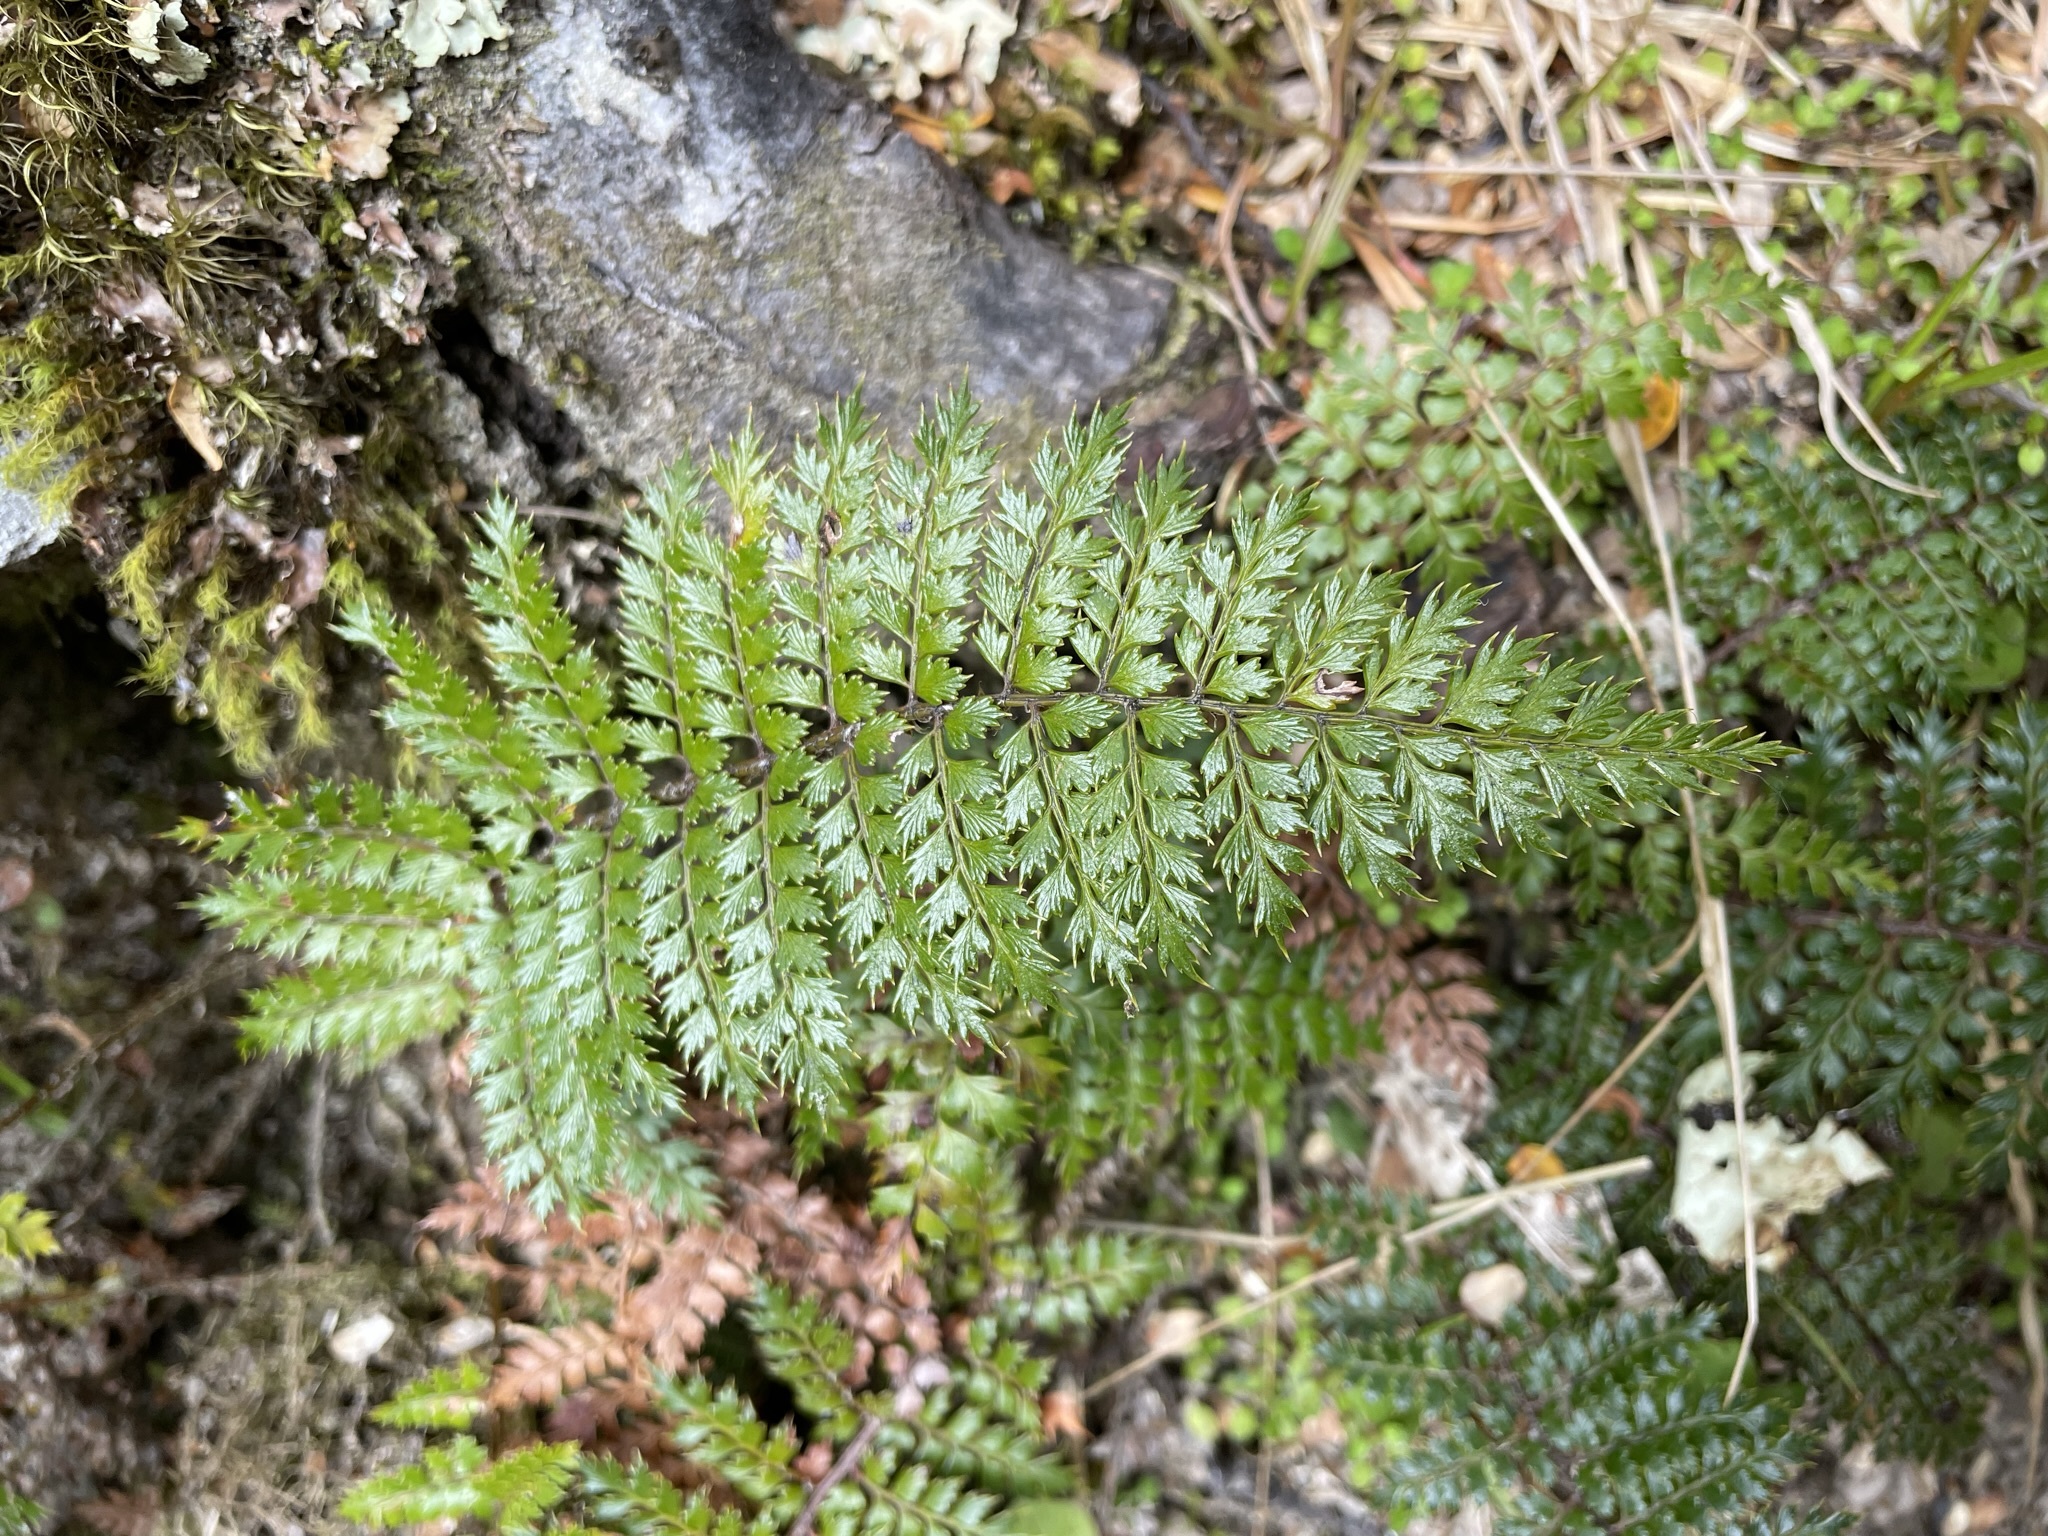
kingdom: Plantae
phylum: Tracheophyta
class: Polypodiopsida
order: Polypodiales
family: Dryopteridaceae
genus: Polystichum
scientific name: Polystichum vestitum
